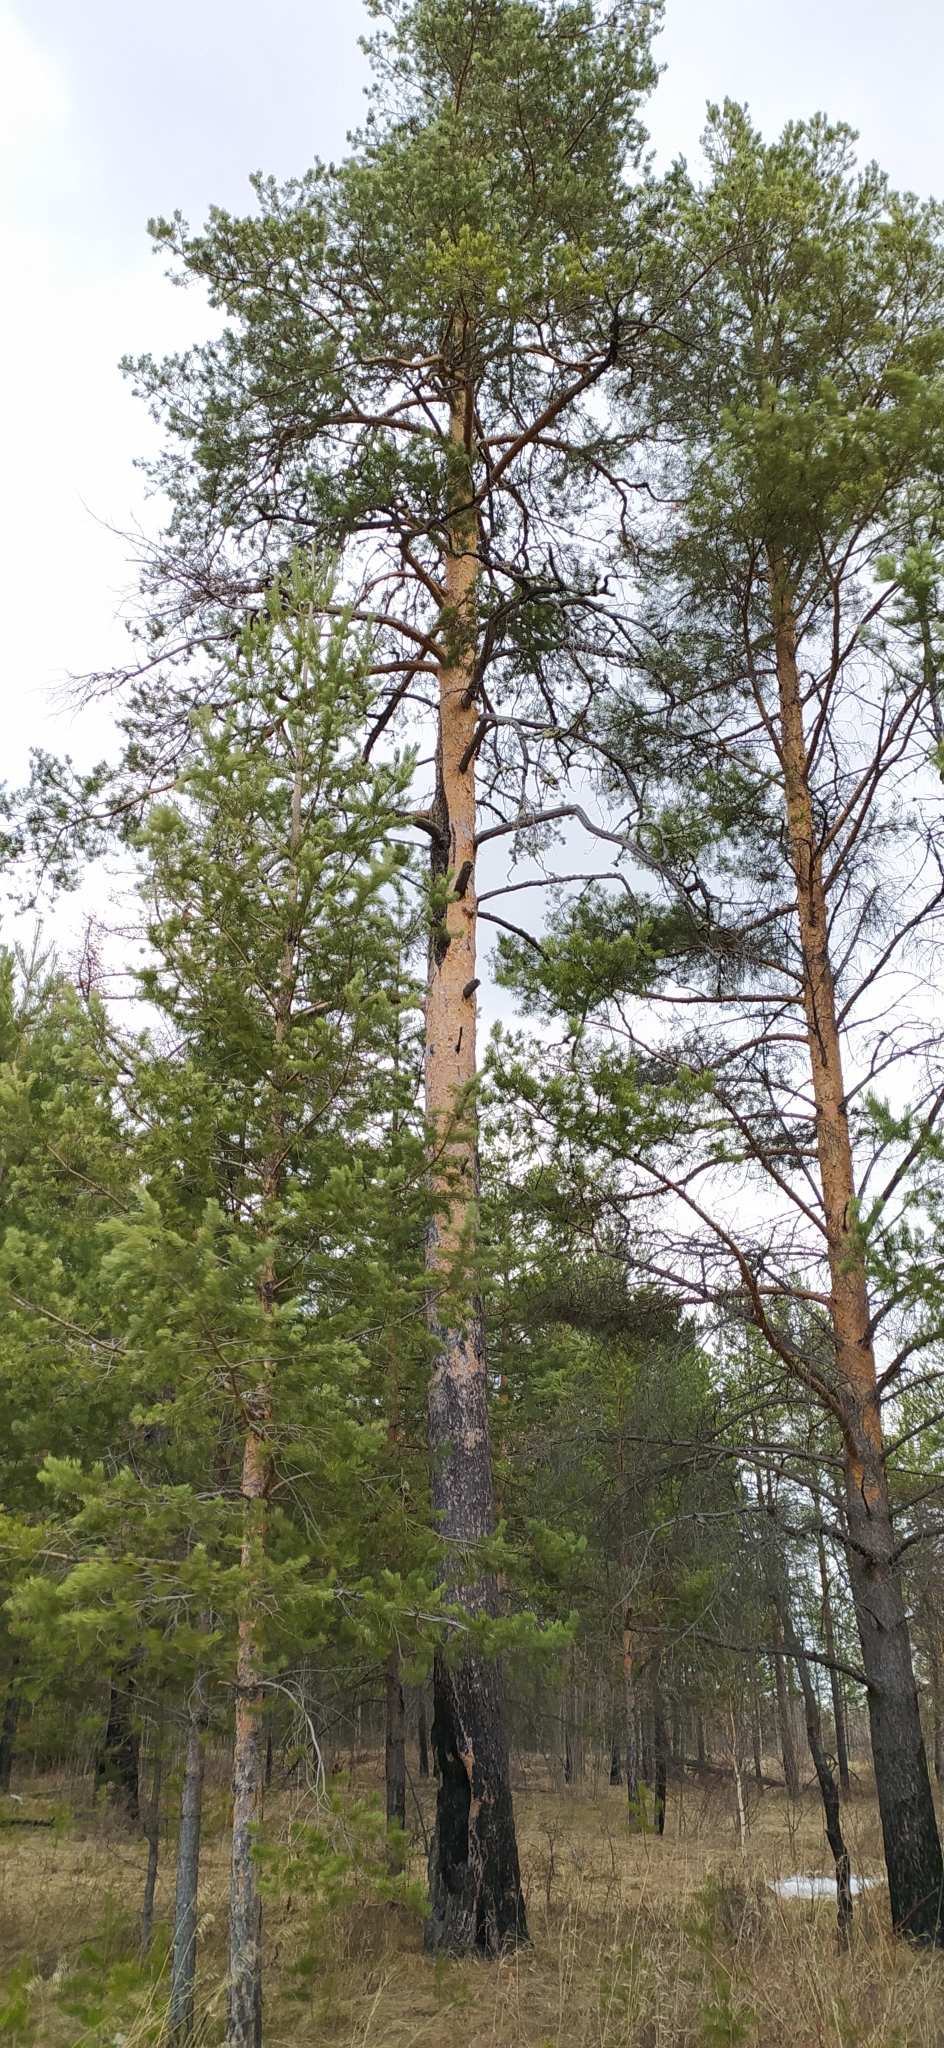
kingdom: Plantae
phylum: Tracheophyta
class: Pinopsida
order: Pinales
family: Pinaceae
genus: Pinus
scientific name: Pinus sylvestris
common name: Scots pine
